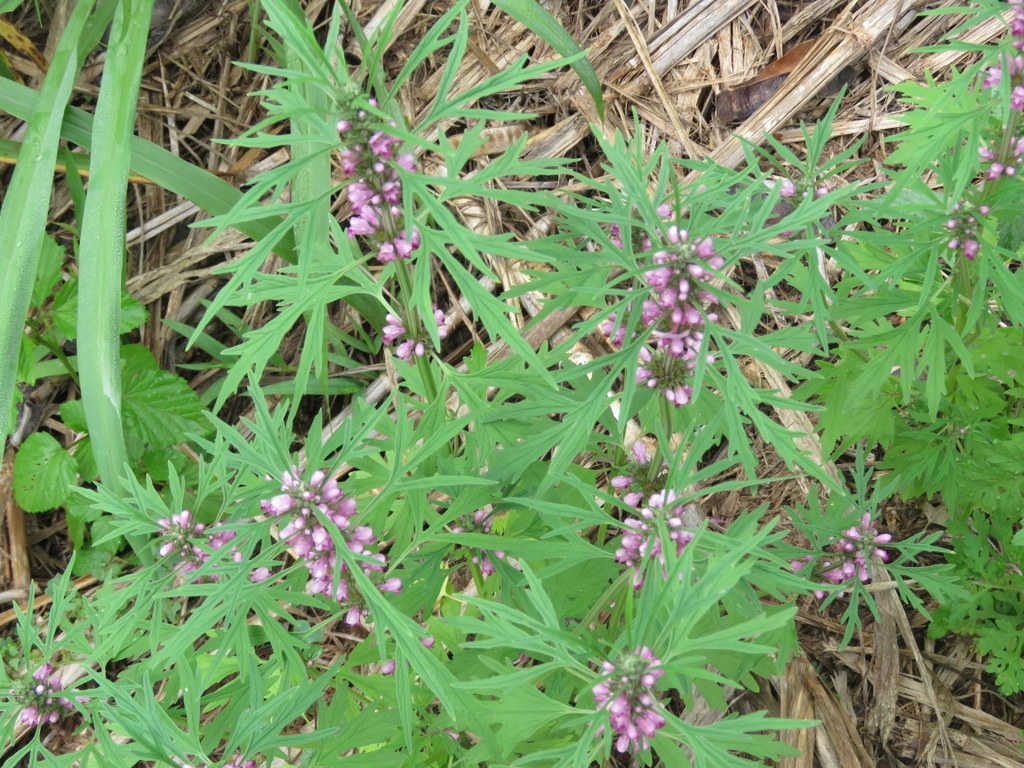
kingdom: Plantae
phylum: Tracheophyta
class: Magnoliopsida
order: Lamiales
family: Lamiaceae
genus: Leonurus
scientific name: Leonurus japonicus
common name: Honeyweed
